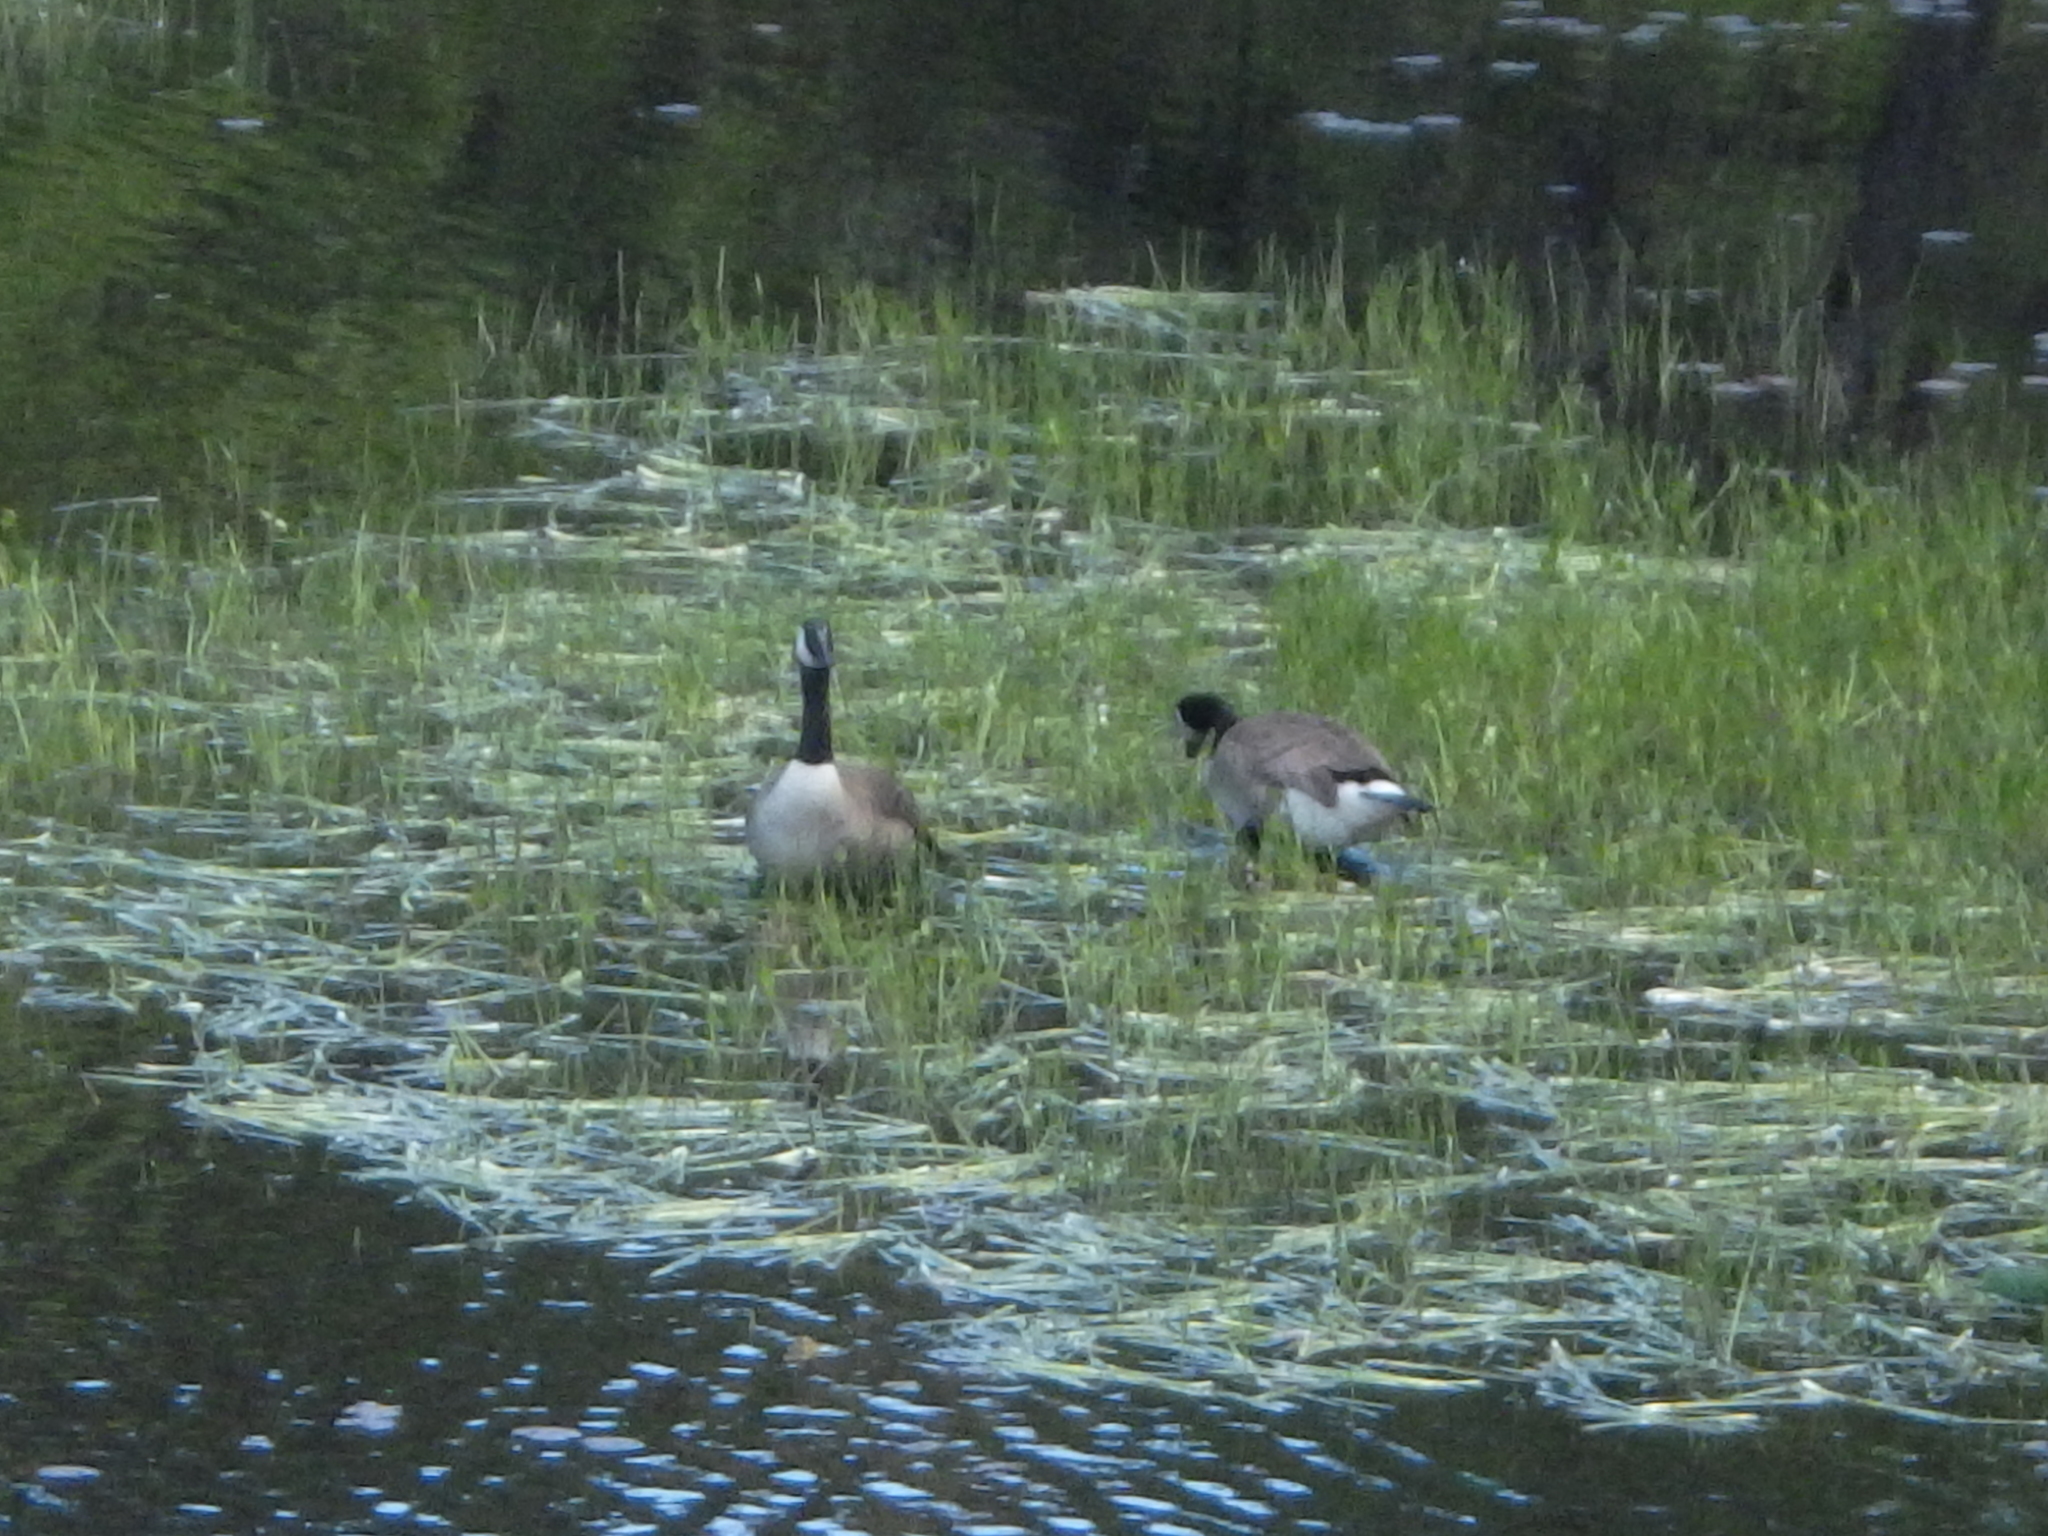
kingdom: Animalia
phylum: Chordata
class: Aves
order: Anseriformes
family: Anatidae
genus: Branta
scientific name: Branta canadensis
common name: Canada goose
